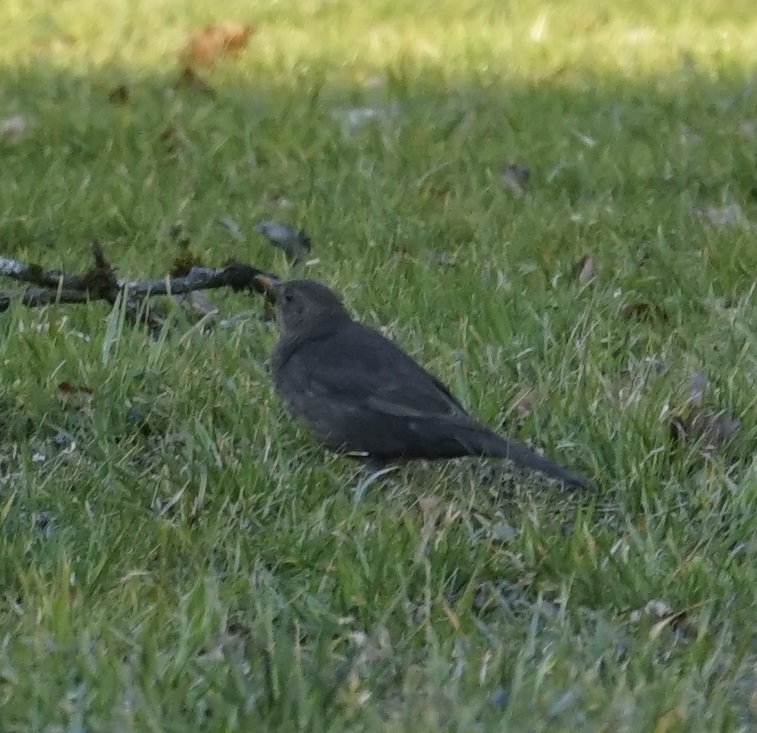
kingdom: Animalia
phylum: Chordata
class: Aves
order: Passeriformes
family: Turdidae
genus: Turdus
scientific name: Turdus merula
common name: Common blackbird
